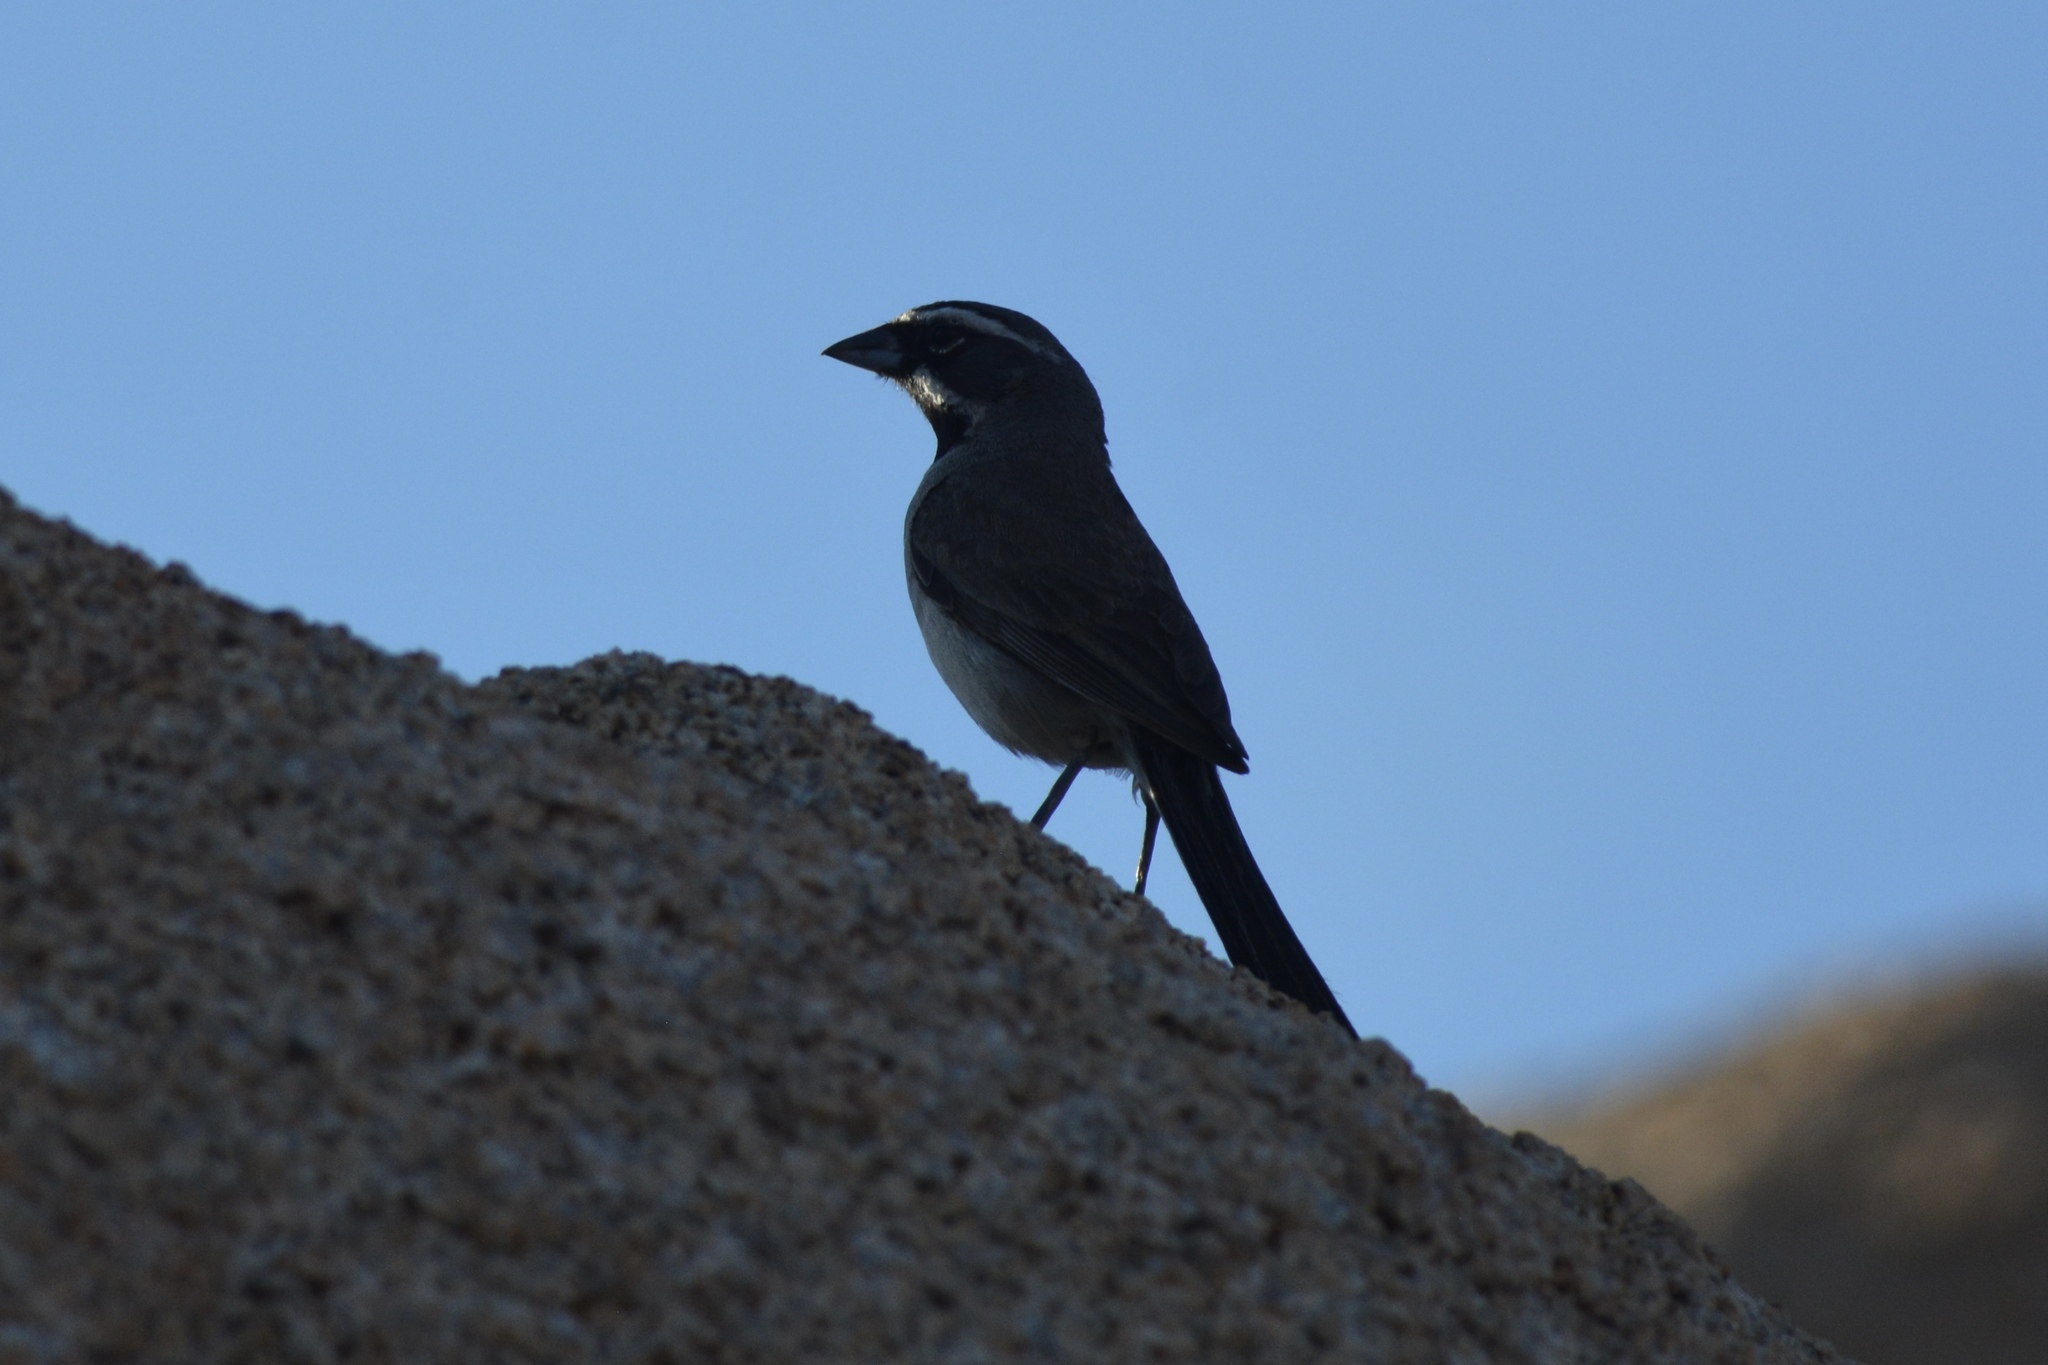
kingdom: Animalia
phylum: Chordata
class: Aves
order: Passeriformes
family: Passerellidae
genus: Amphispiza
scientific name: Amphispiza bilineata
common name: Black-throated sparrow
